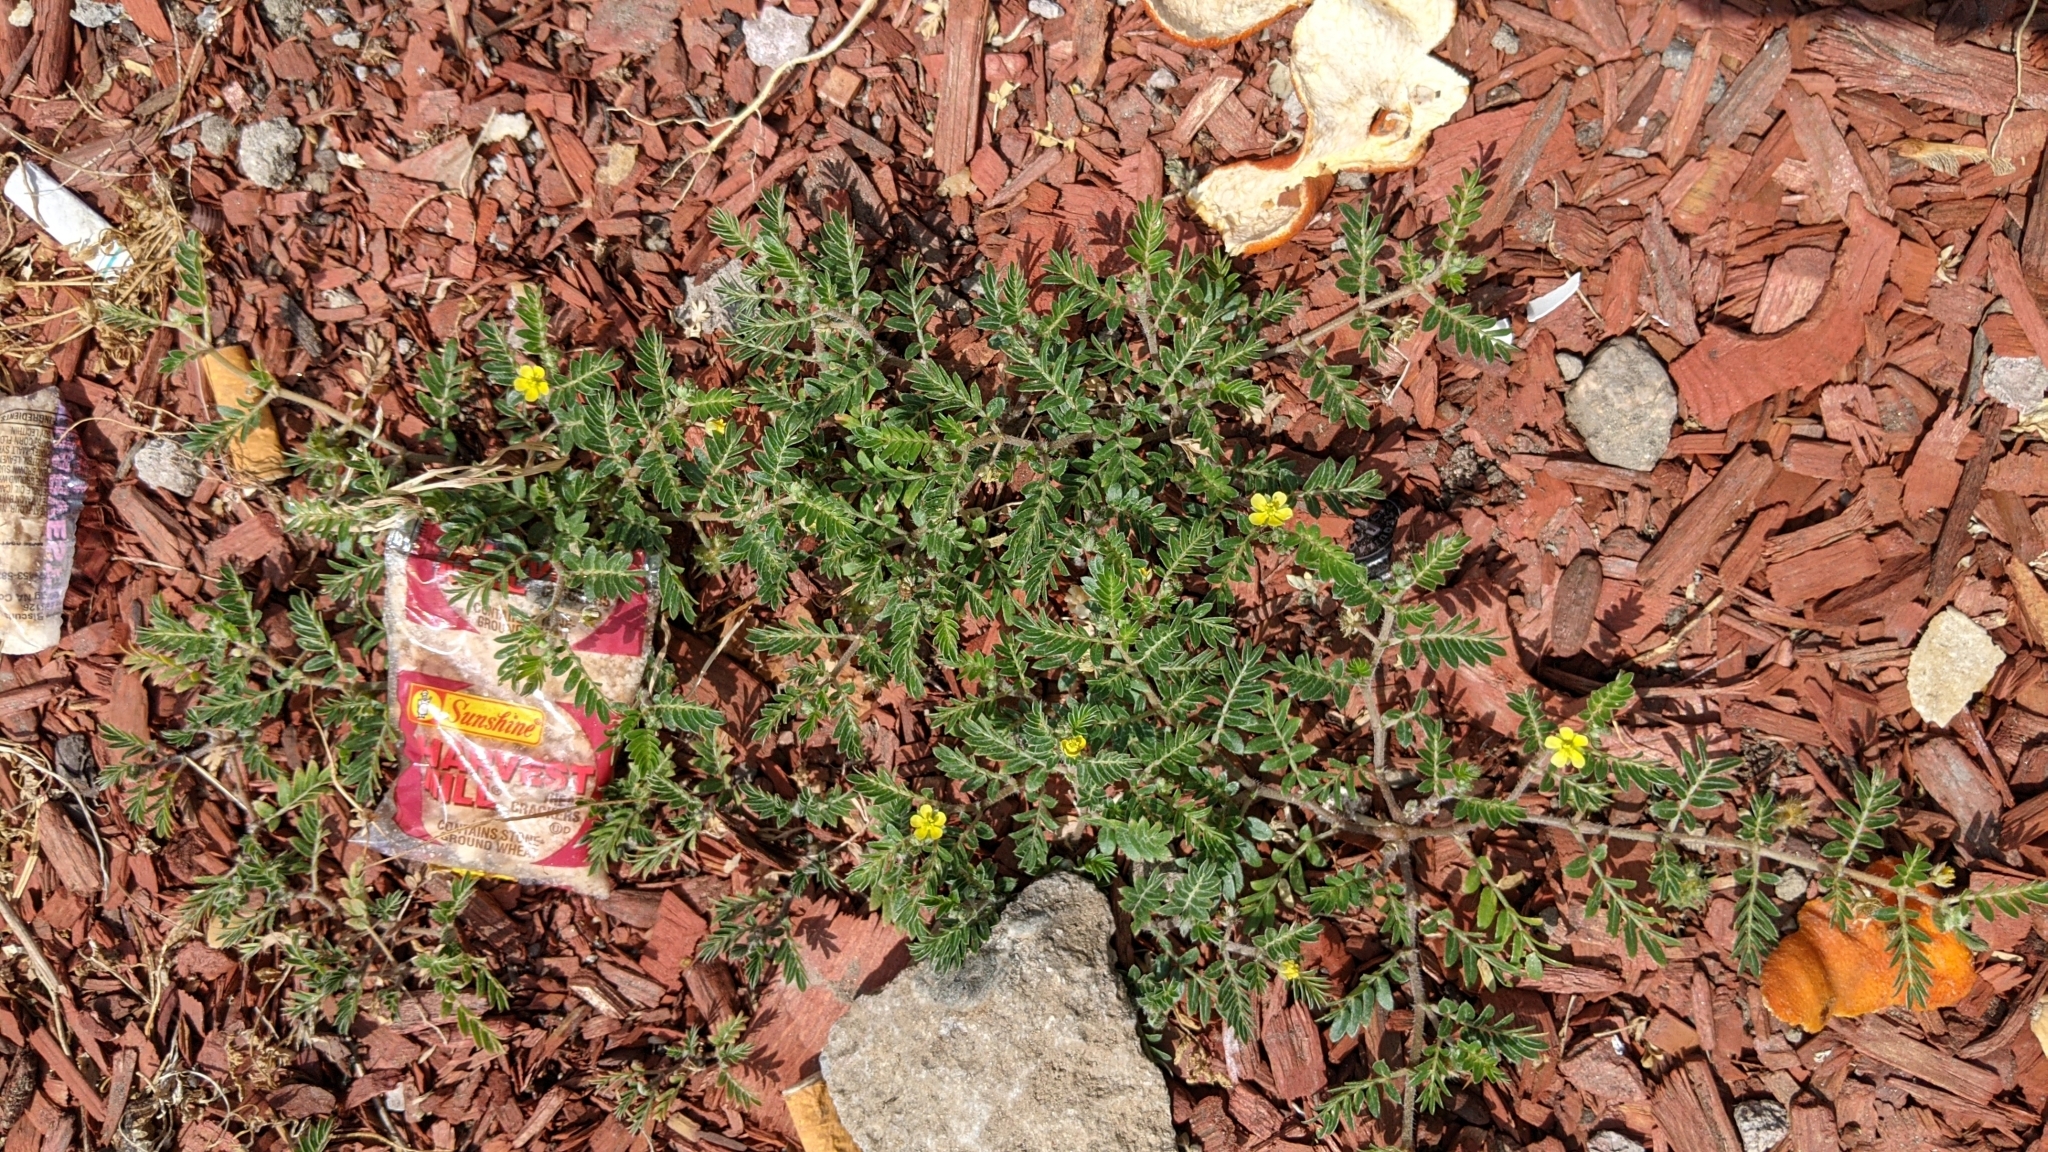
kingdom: Plantae
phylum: Tracheophyta
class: Magnoliopsida
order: Zygophyllales
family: Zygophyllaceae
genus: Tribulus
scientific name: Tribulus terrestris
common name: Puncturevine
